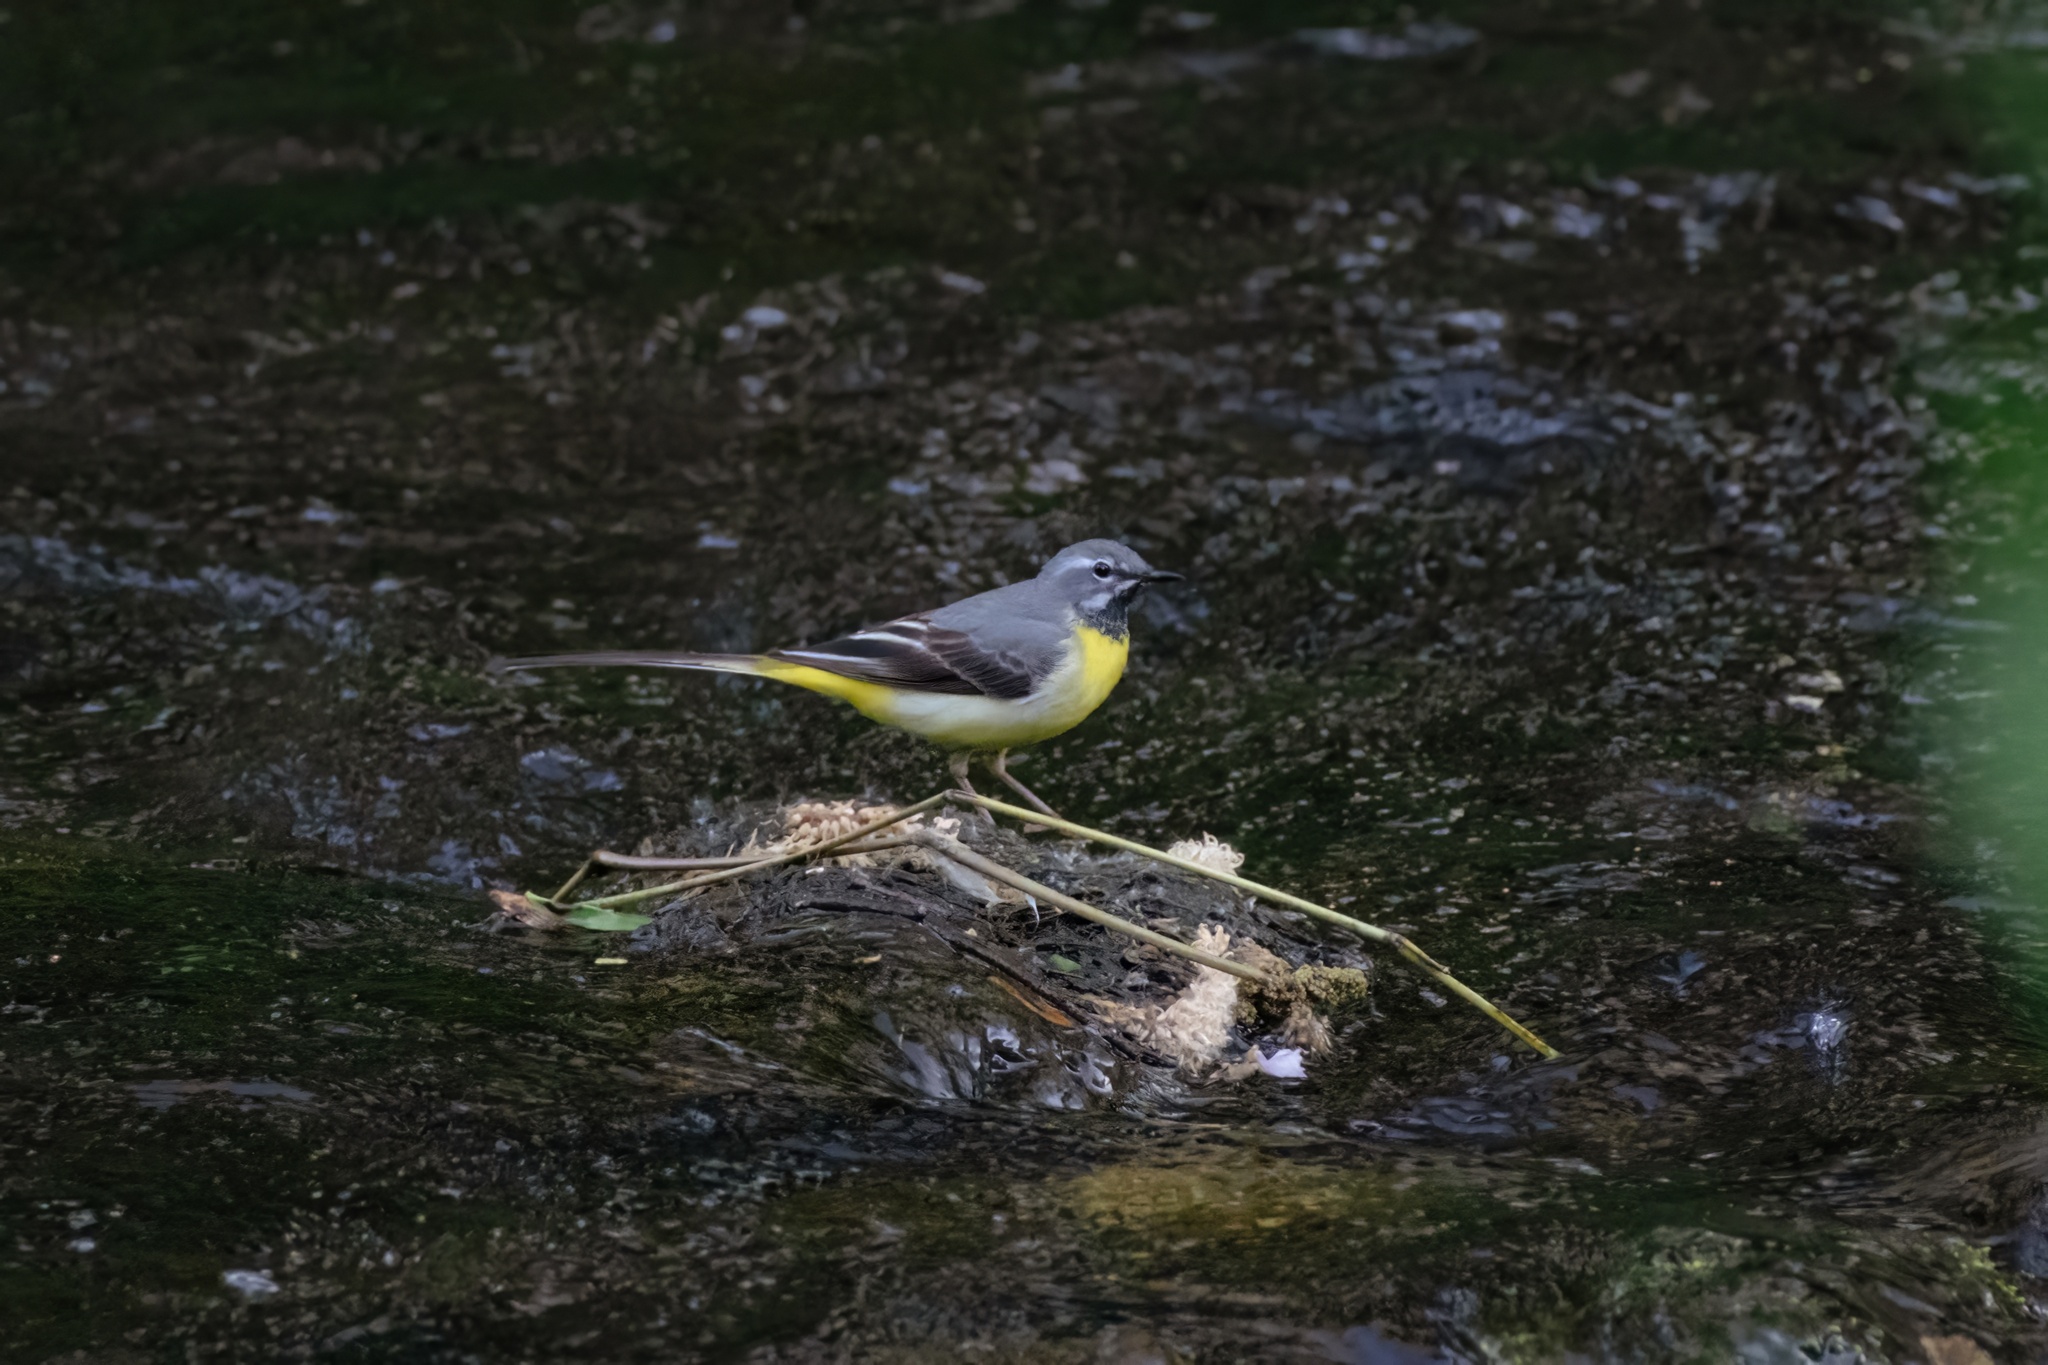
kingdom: Animalia
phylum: Chordata
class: Aves
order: Passeriformes
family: Motacillidae
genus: Motacilla
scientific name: Motacilla cinerea
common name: Grey wagtail
